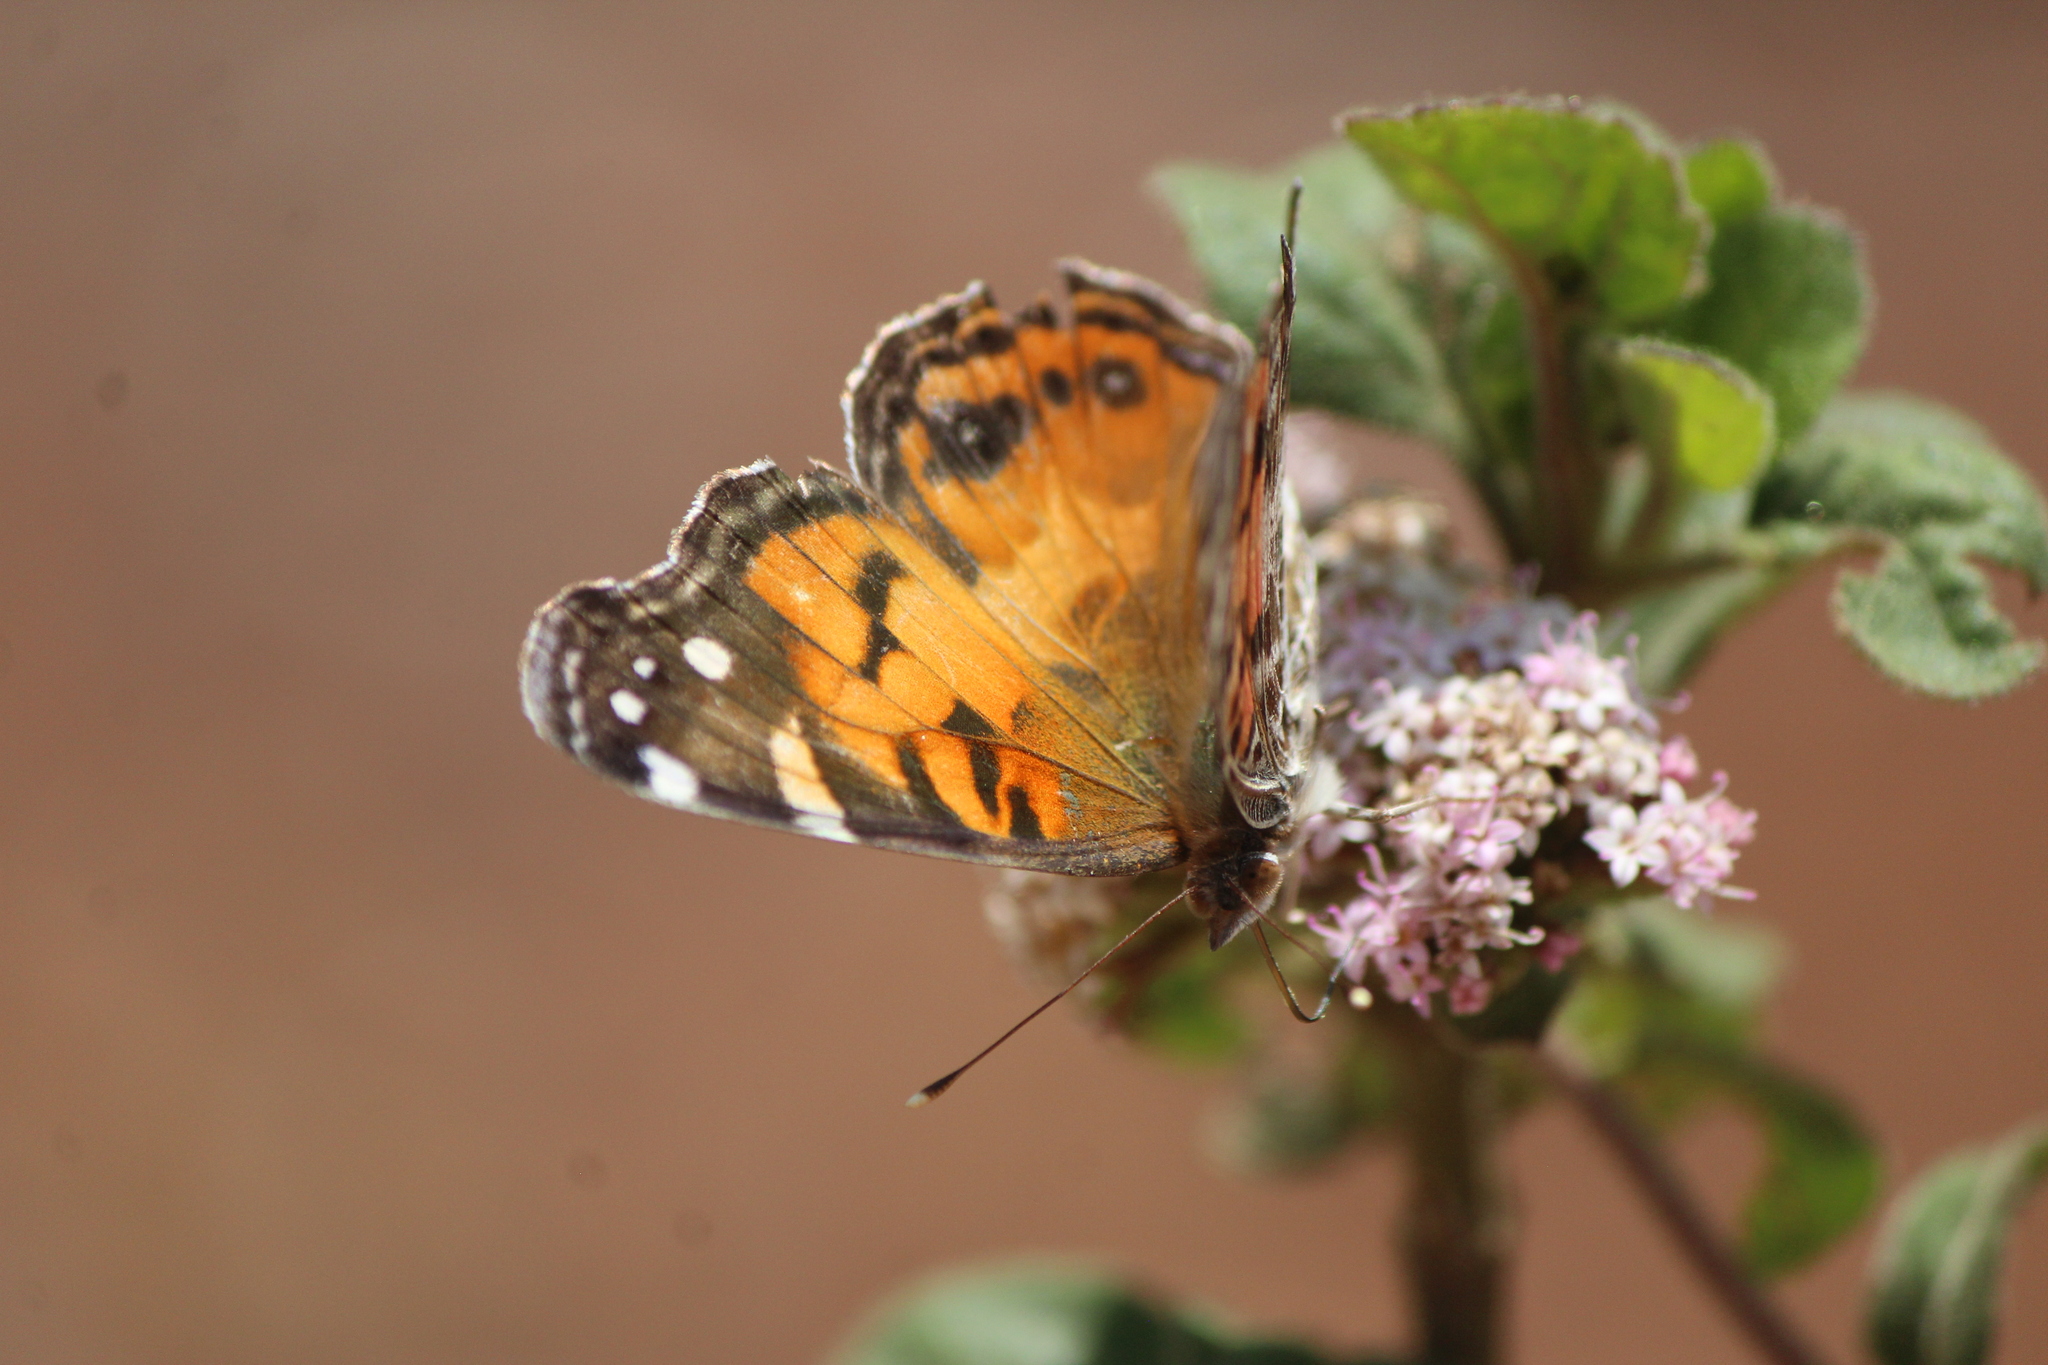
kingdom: Animalia
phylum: Arthropoda
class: Insecta
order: Lepidoptera
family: Nymphalidae
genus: Vanessa
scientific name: Vanessa virginiensis
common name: American lady
